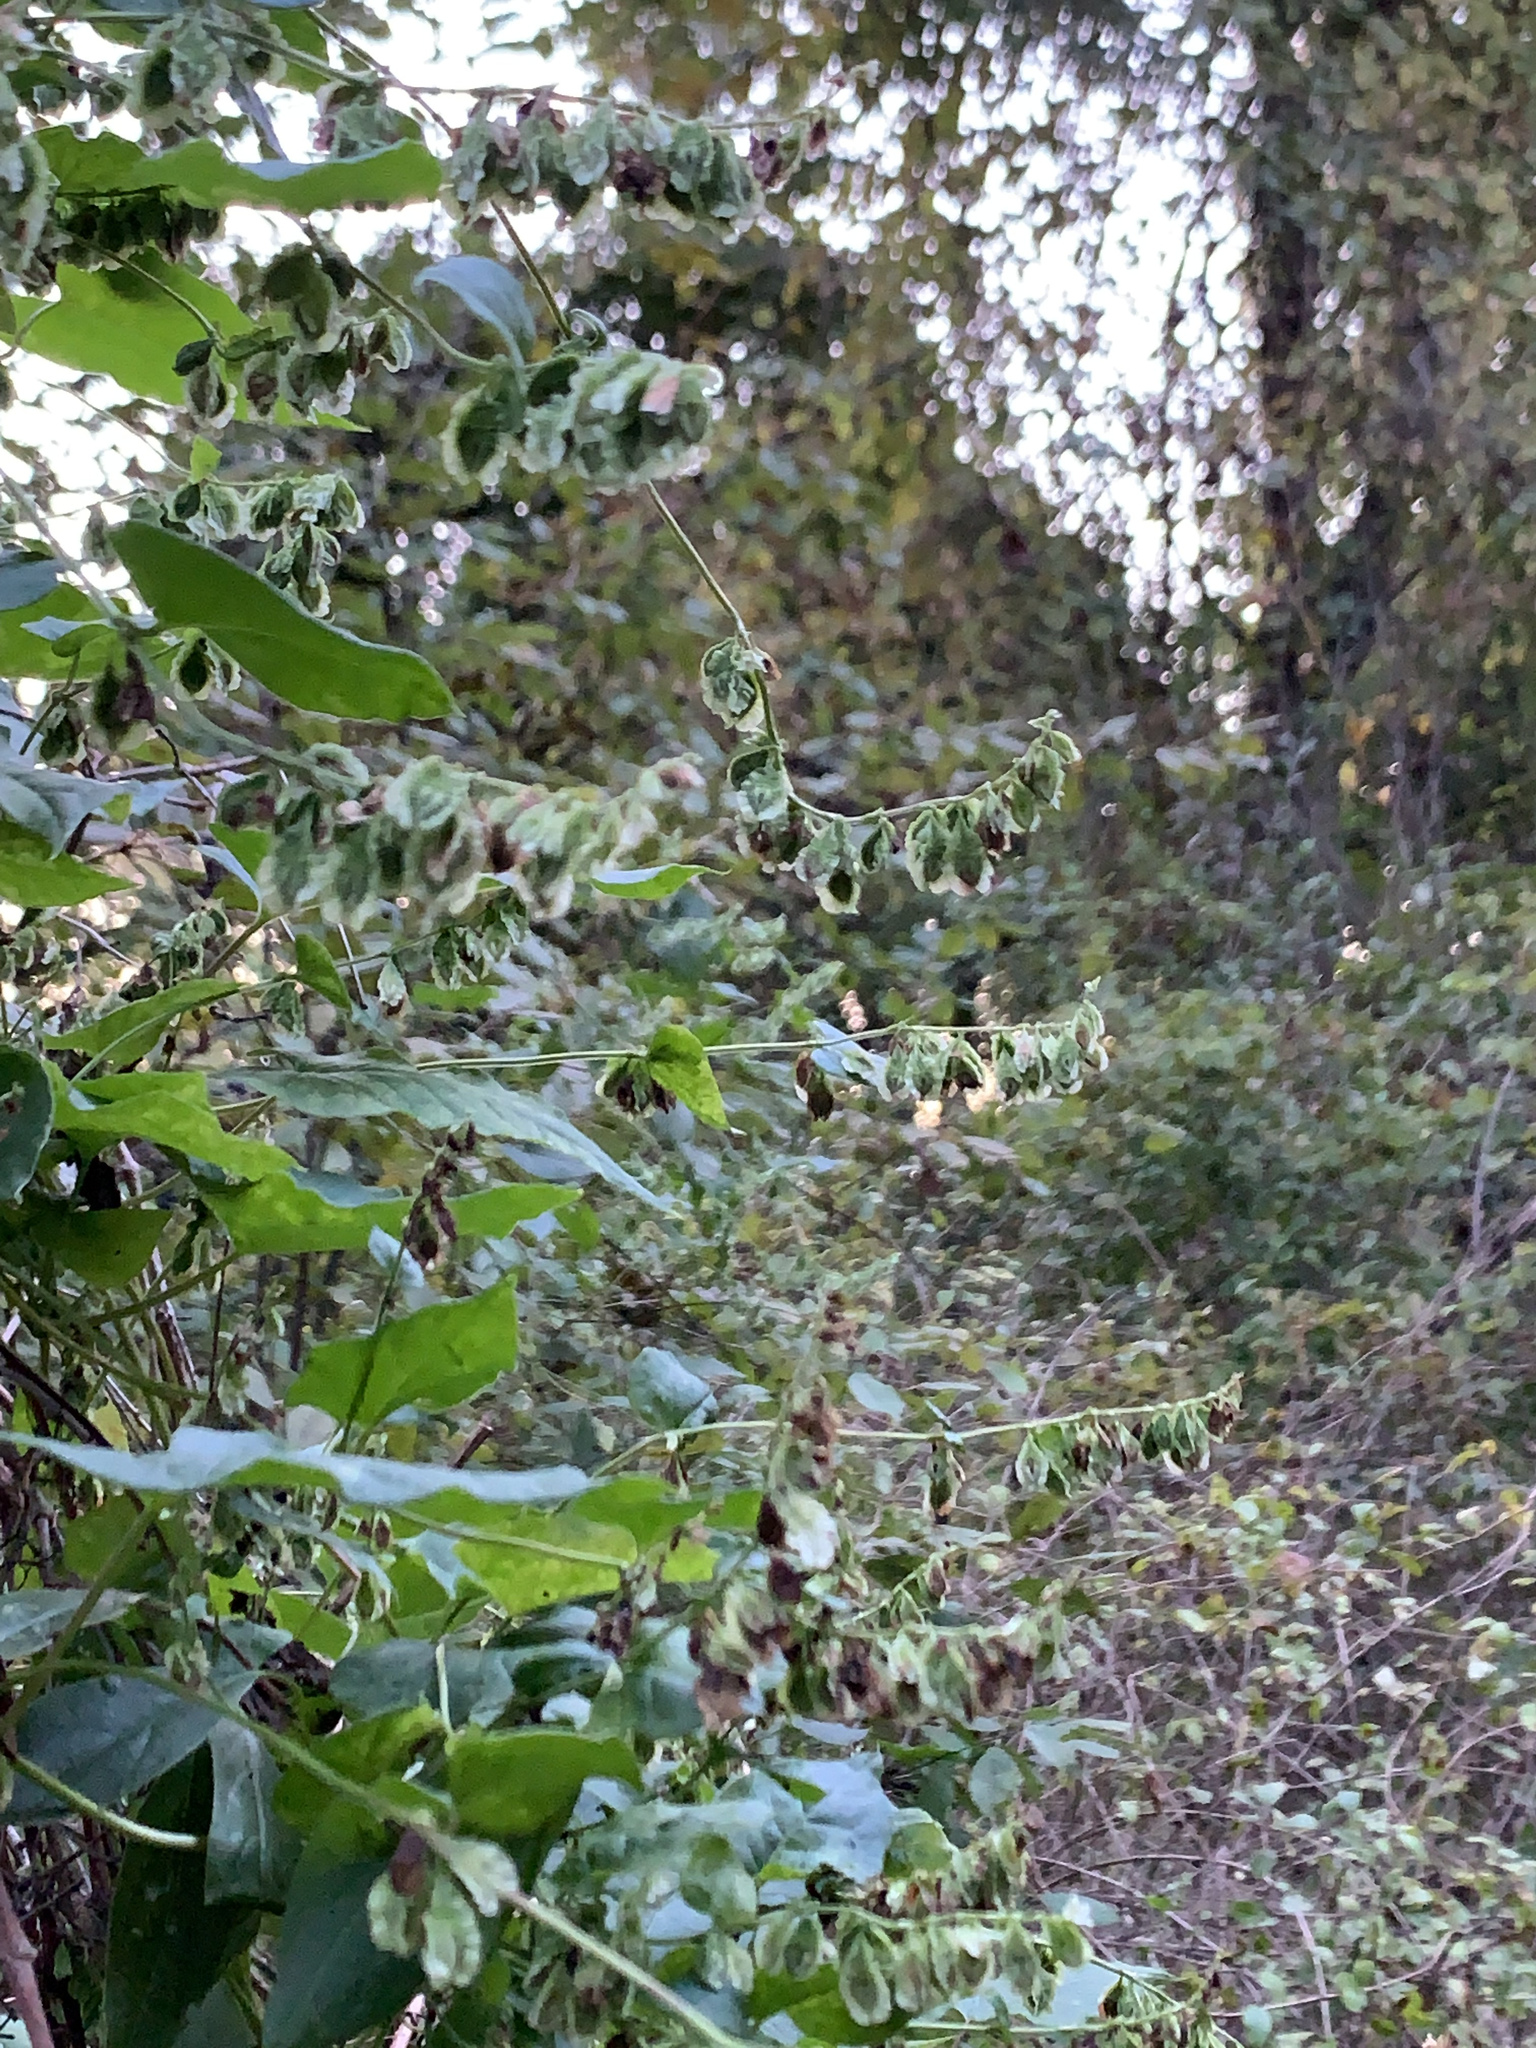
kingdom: Plantae
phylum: Tracheophyta
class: Magnoliopsida
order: Caryophyllales
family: Polygonaceae
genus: Fallopia
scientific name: Fallopia scandens
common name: Climbing false buckwheat
